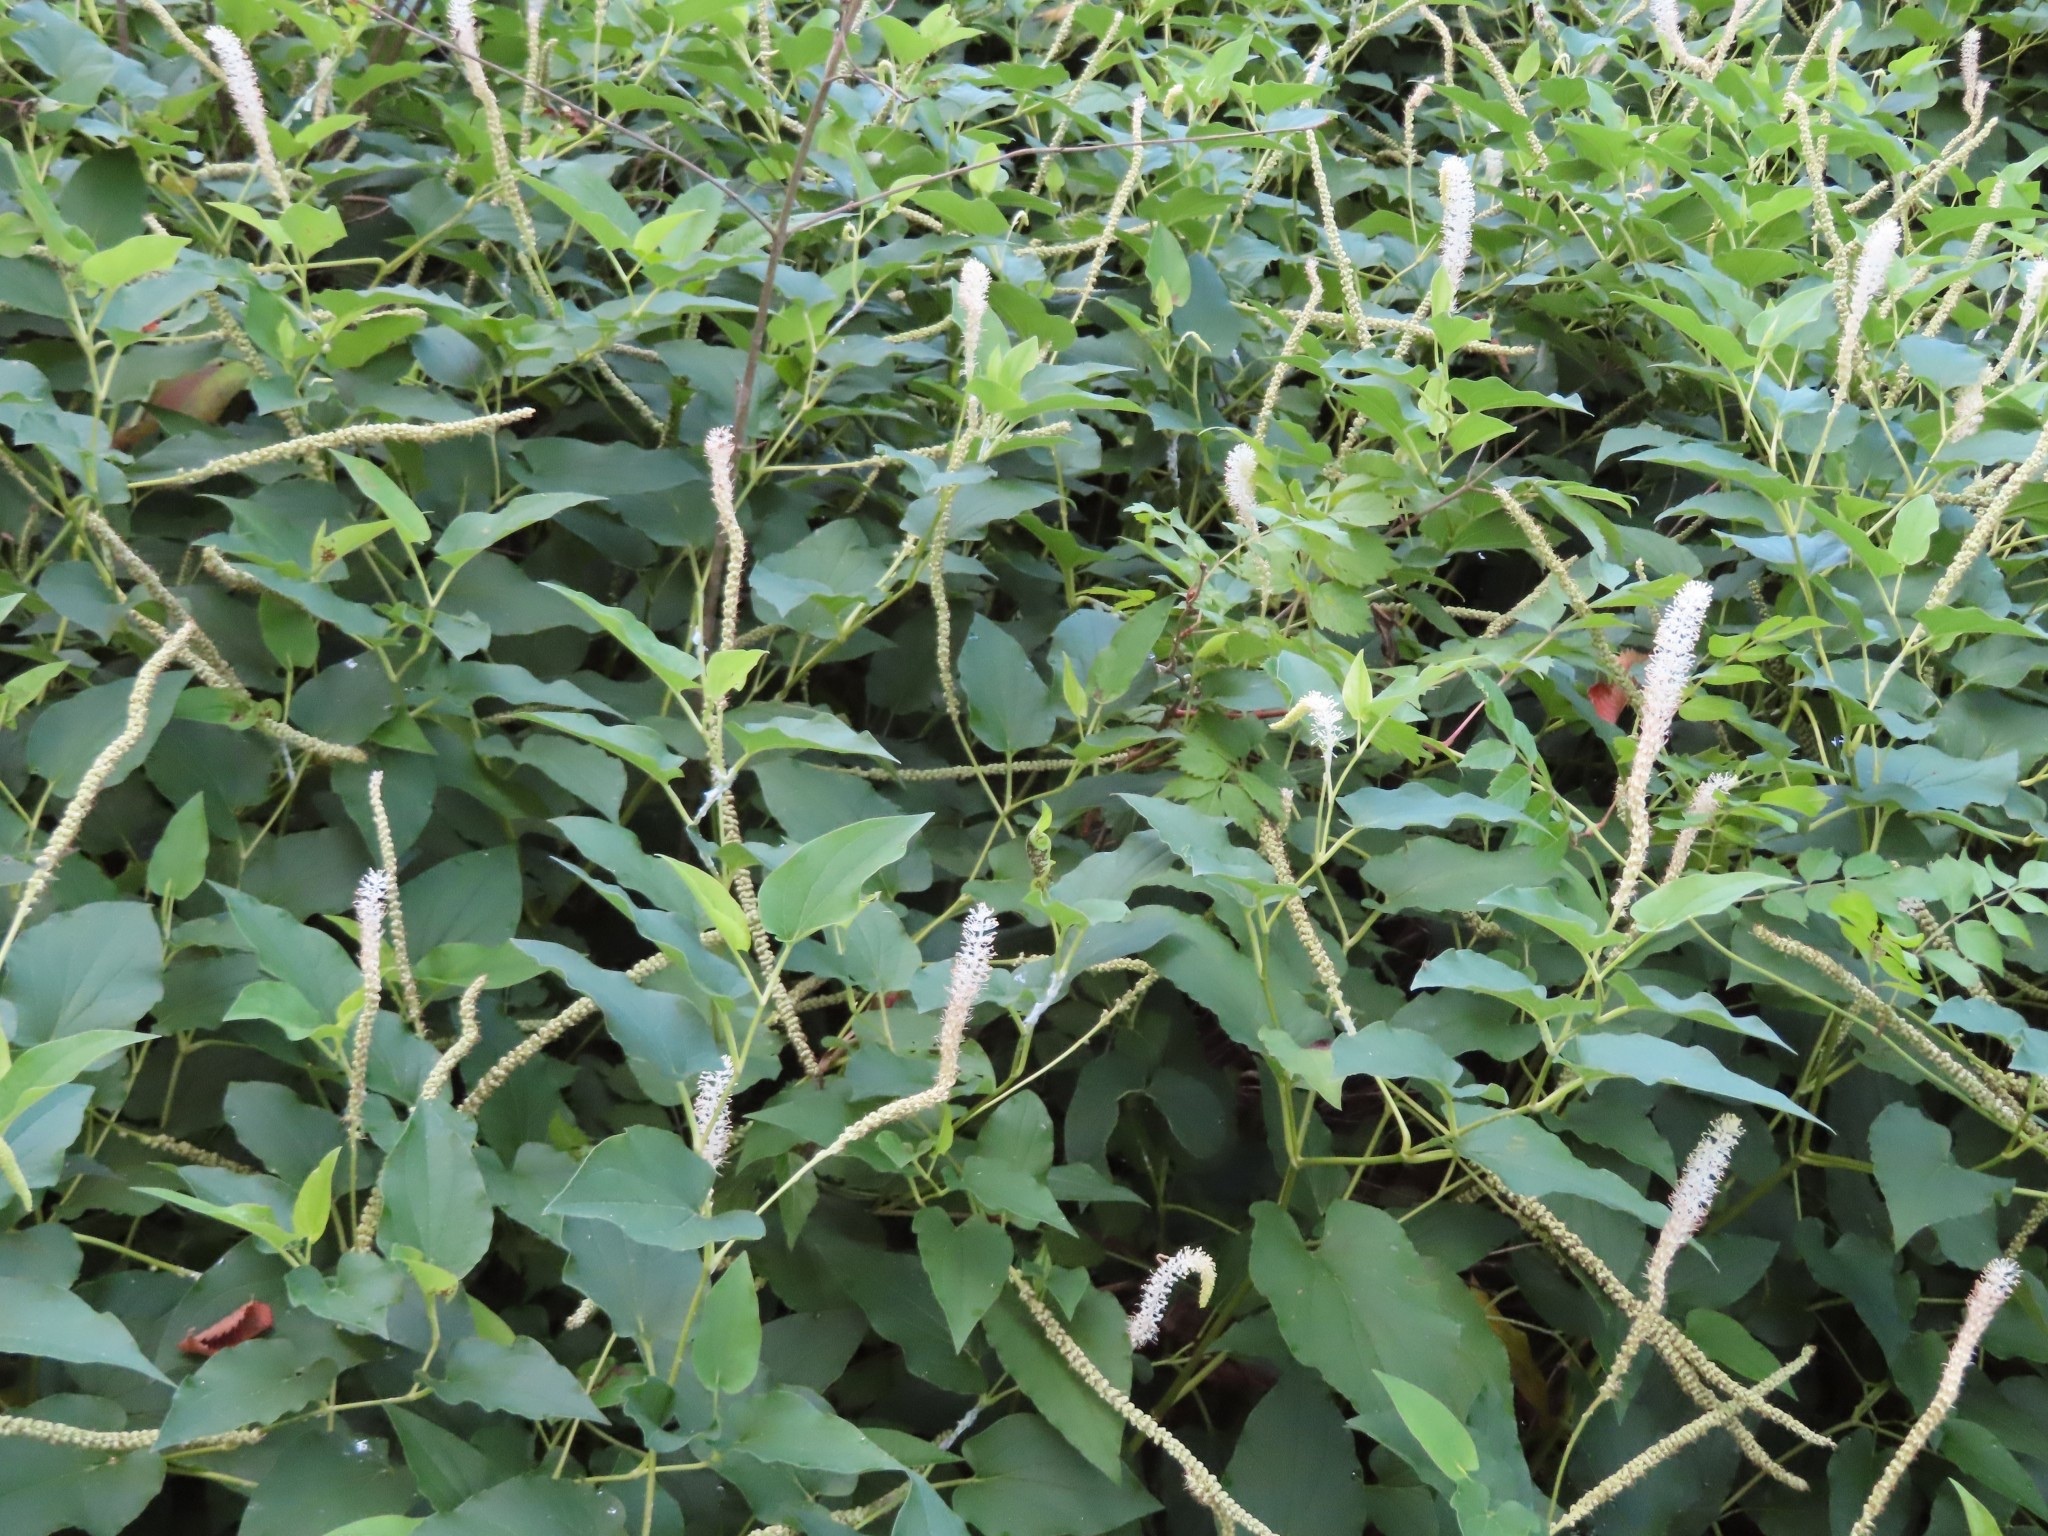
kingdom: Plantae
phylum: Tracheophyta
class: Magnoliopsida
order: Piperales
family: Saururaceae
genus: Saururus
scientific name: Saururus cernuus
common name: Lizard's-tail
